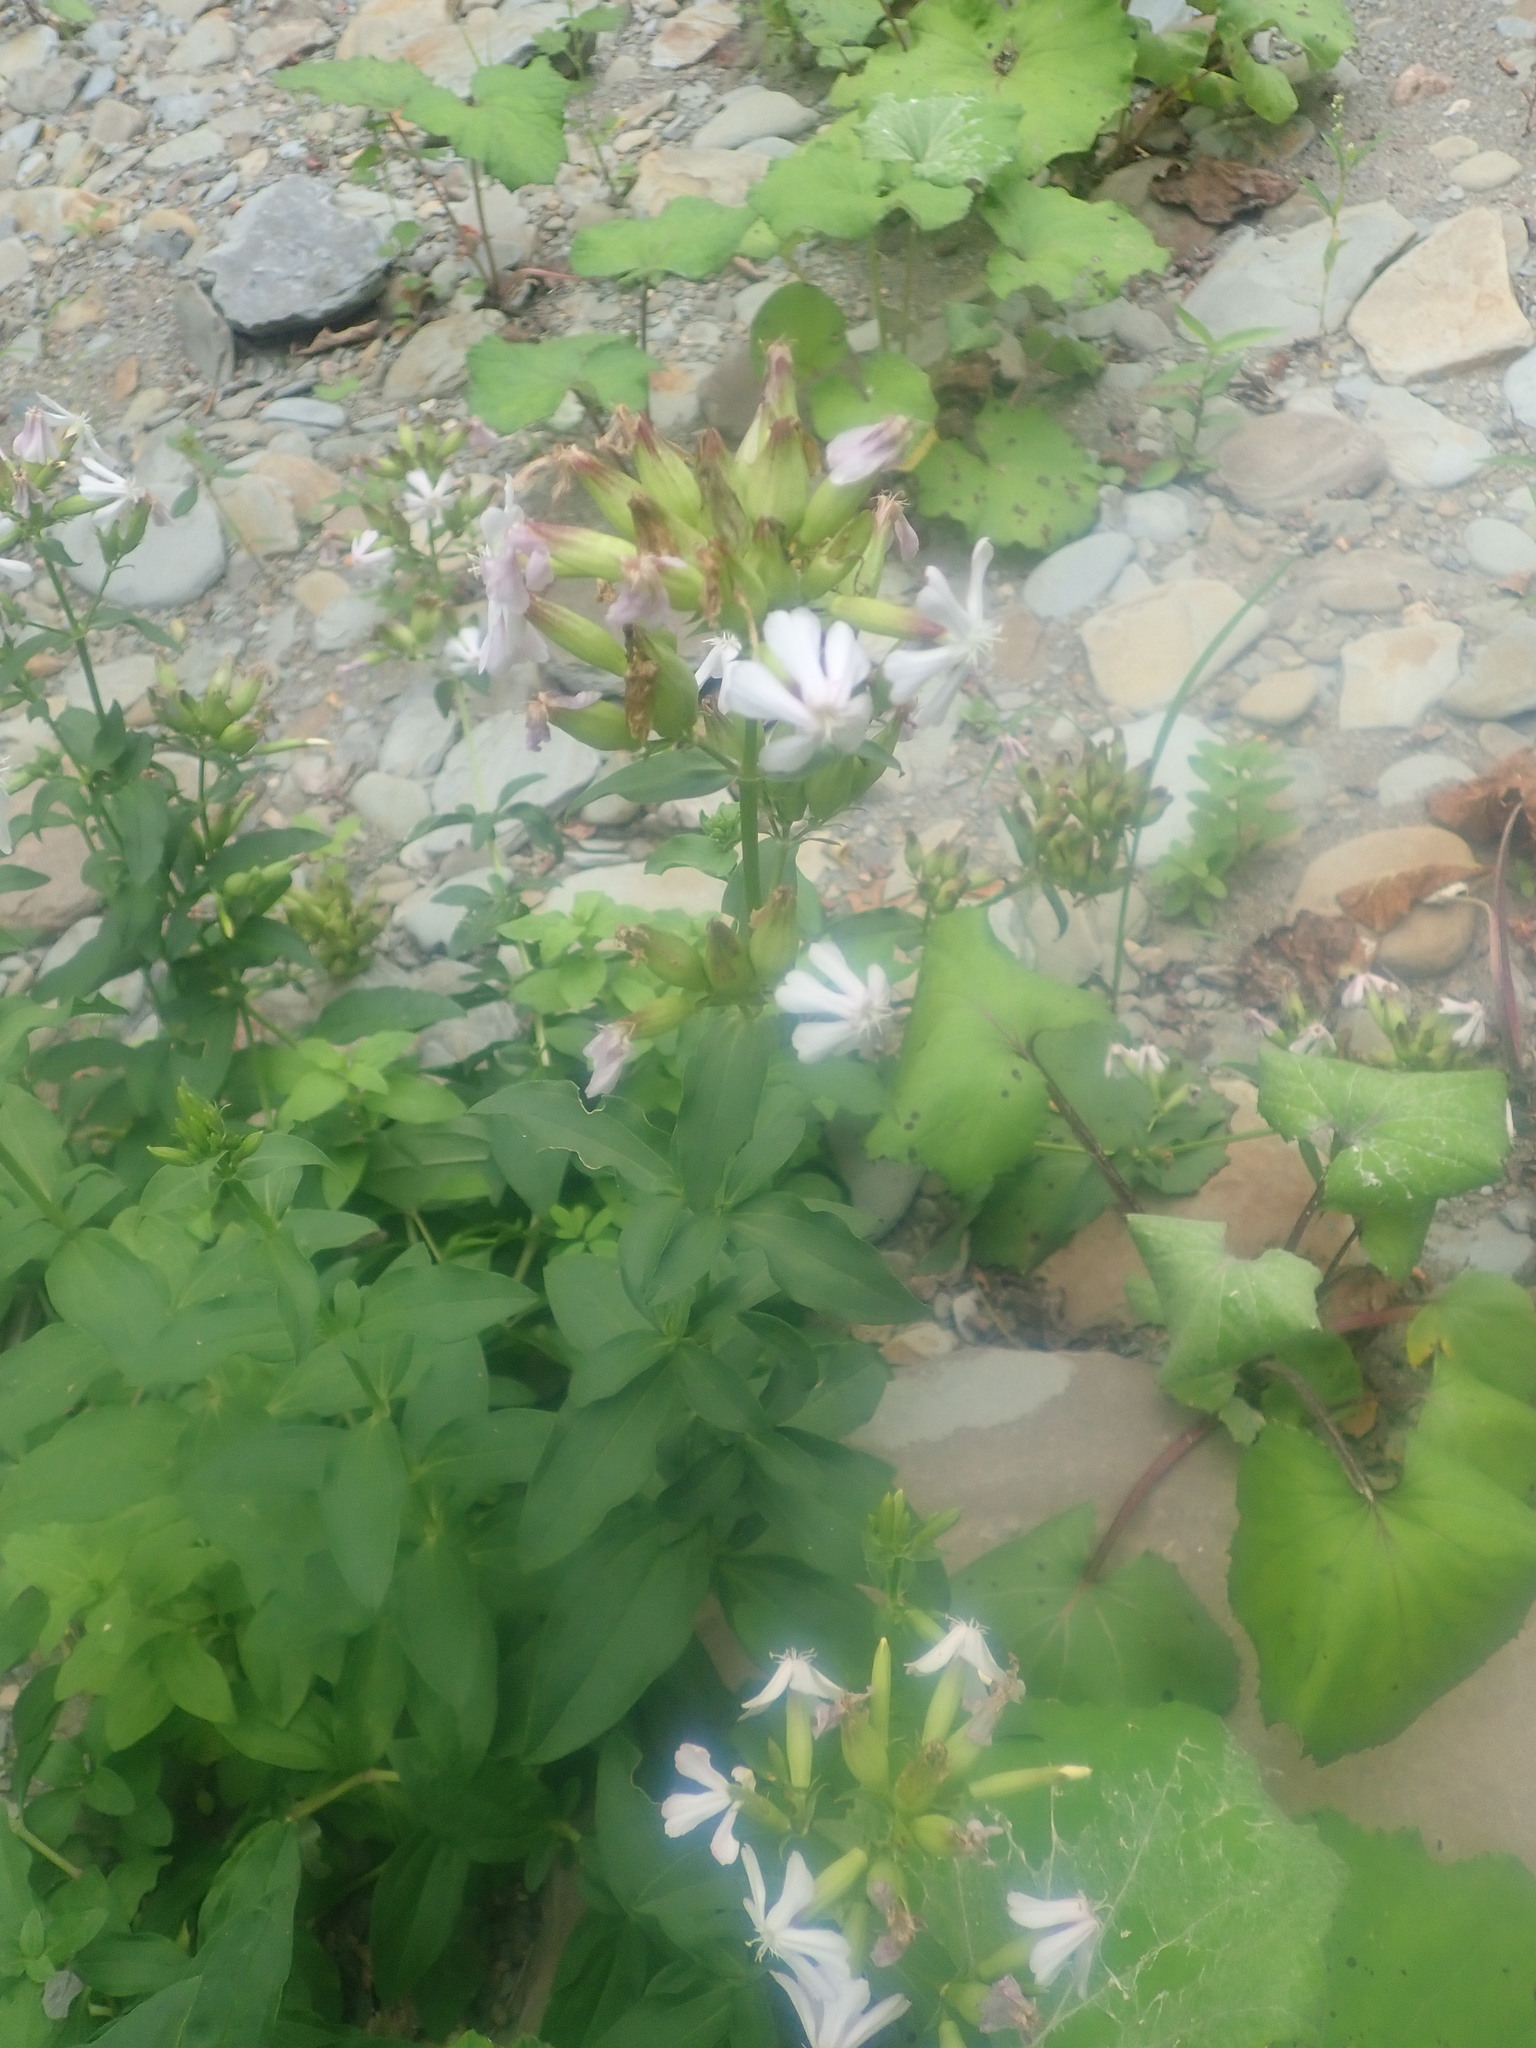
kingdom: Plantae
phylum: Tracheophyta
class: Magnoliopsida
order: Caryophyllales
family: Caryophyllaceae
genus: Saponaria
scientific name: Saponaria officinalis
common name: Soapwort
